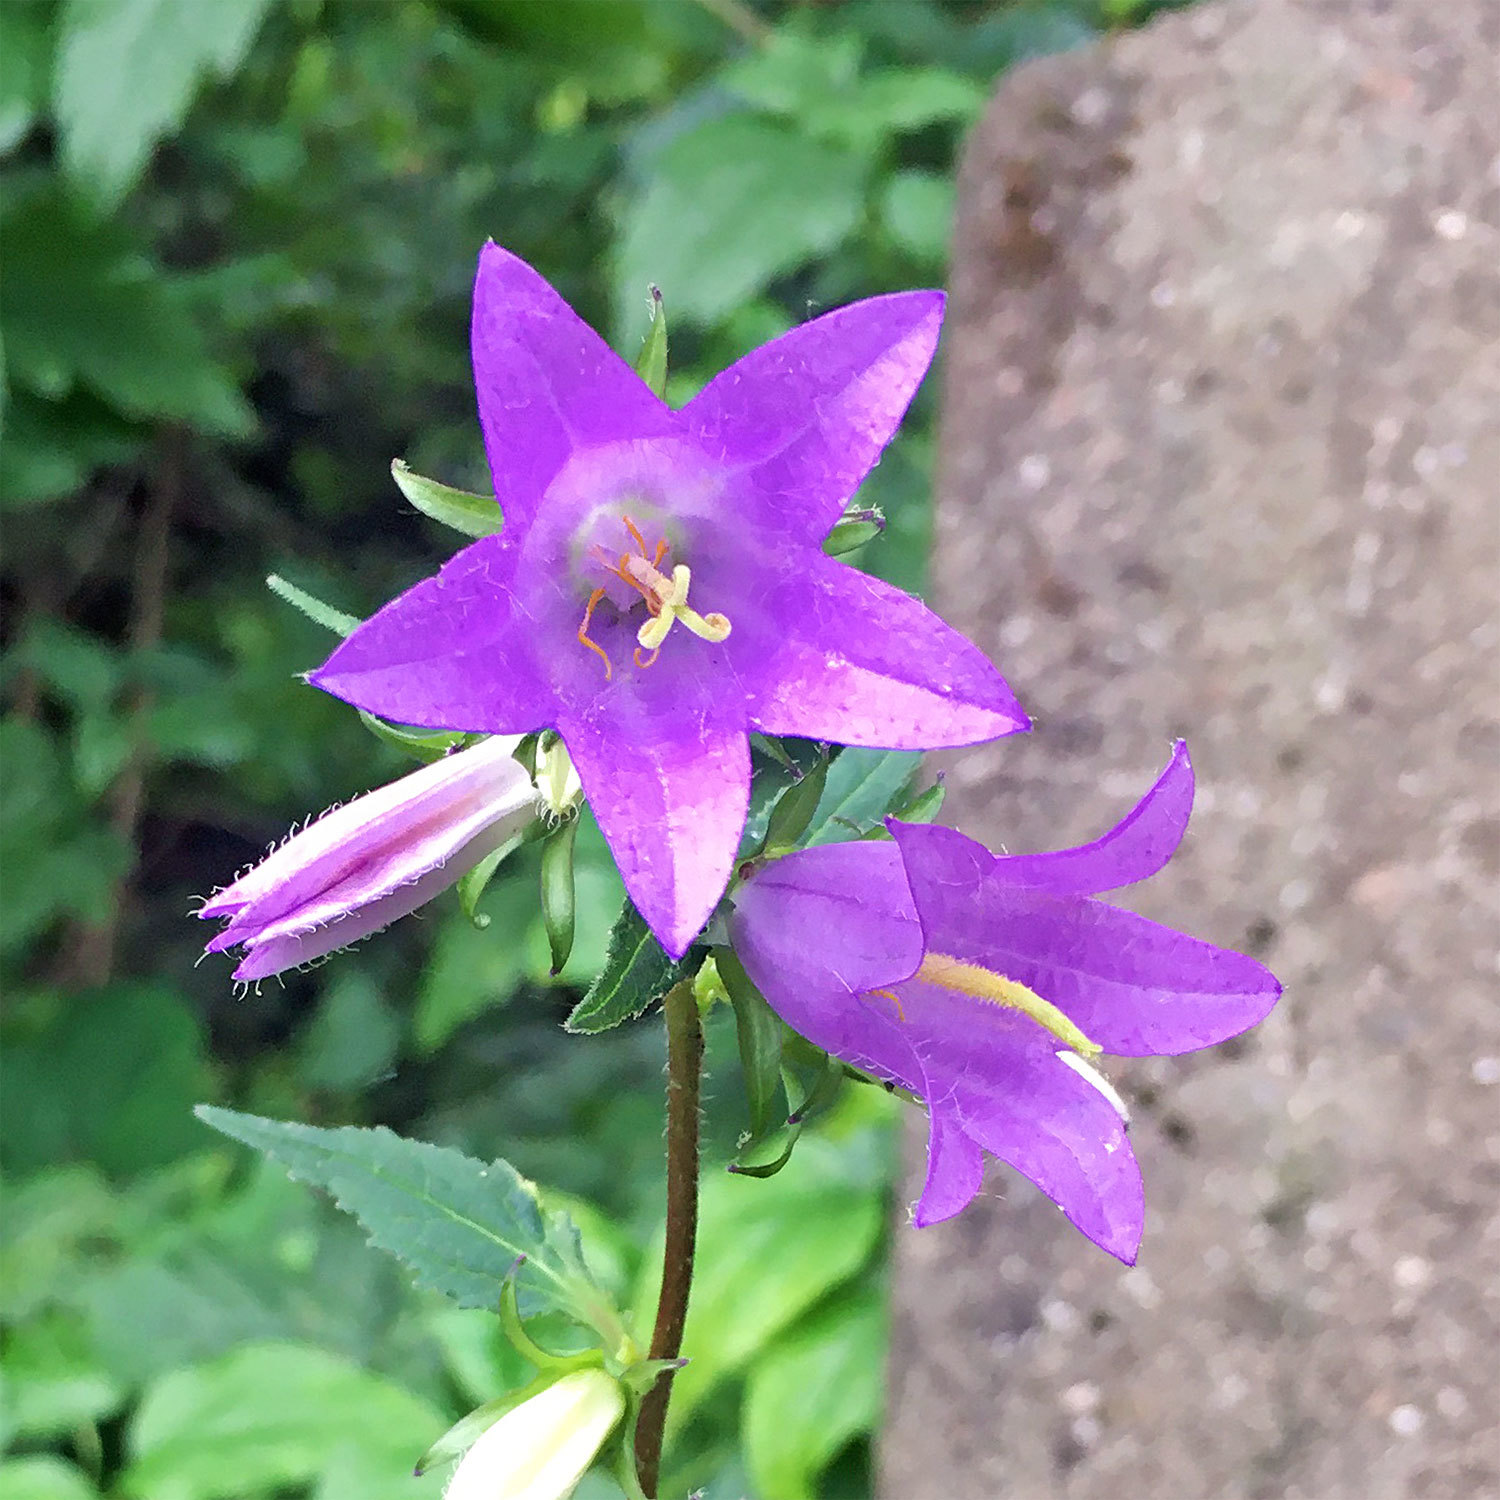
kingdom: Plantae
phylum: Tracheophyta
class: Magnoliopsida
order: Asterales
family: Campanulaceae
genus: Campanula
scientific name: Campanula trachelium
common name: Nettle-leaved bellflower
